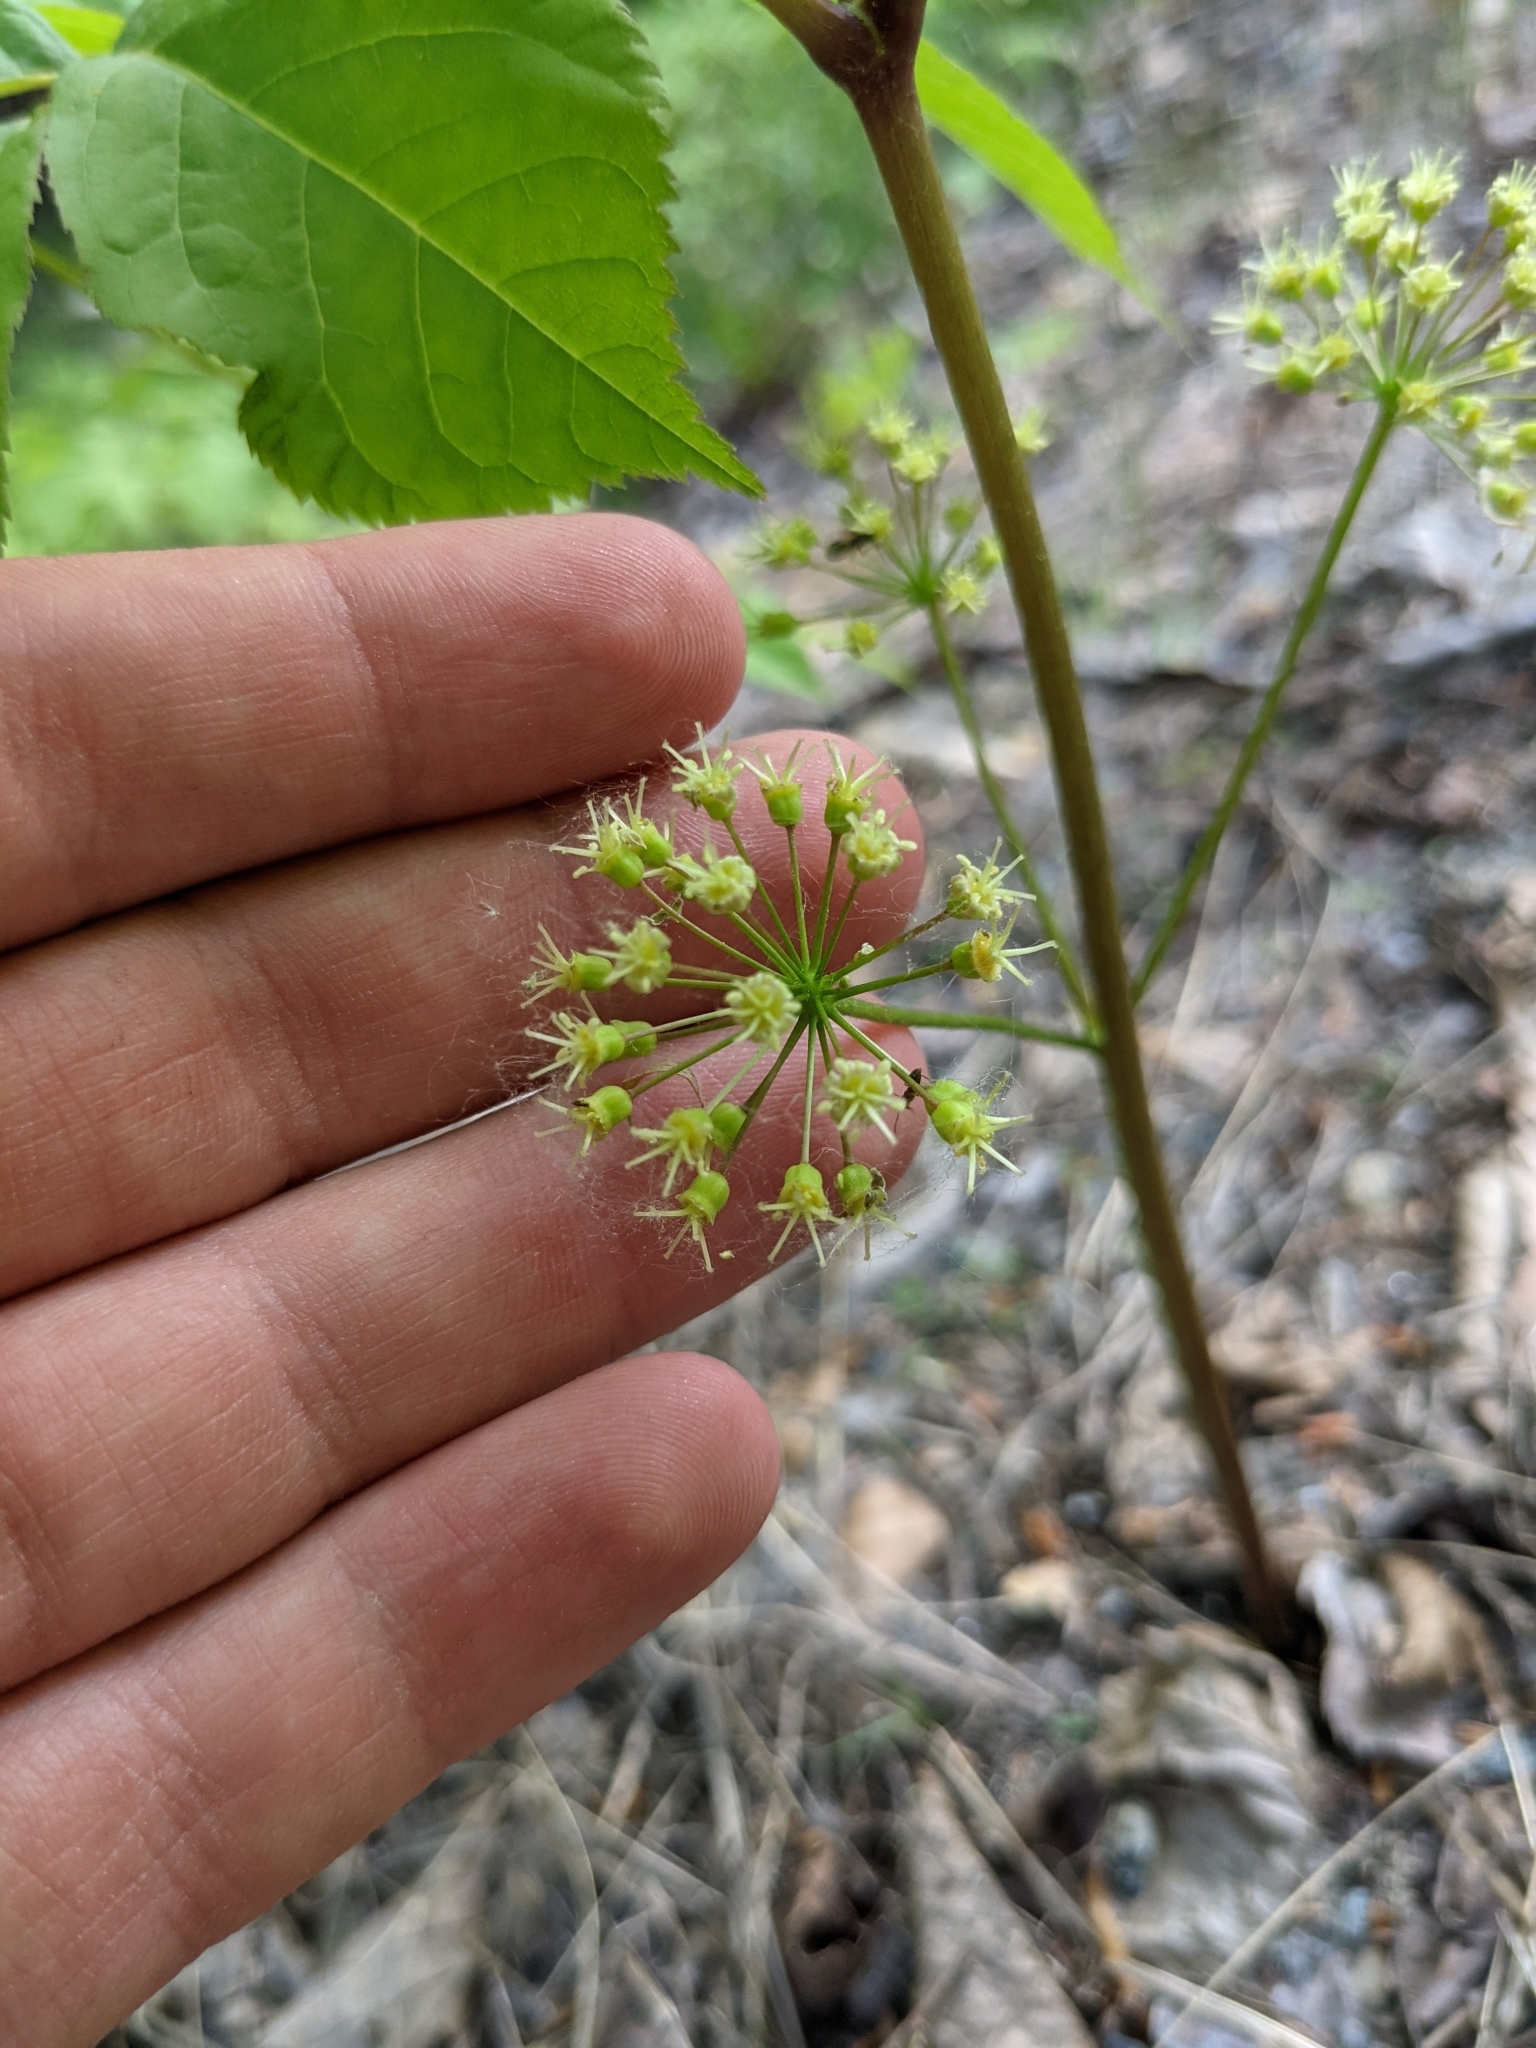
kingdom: Plantae
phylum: Tracheophyta
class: Magnoliopsida
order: Apiales
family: Araliaceae
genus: Aralia
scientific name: Aralia nudicaulis
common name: Wild sarsaparilla
